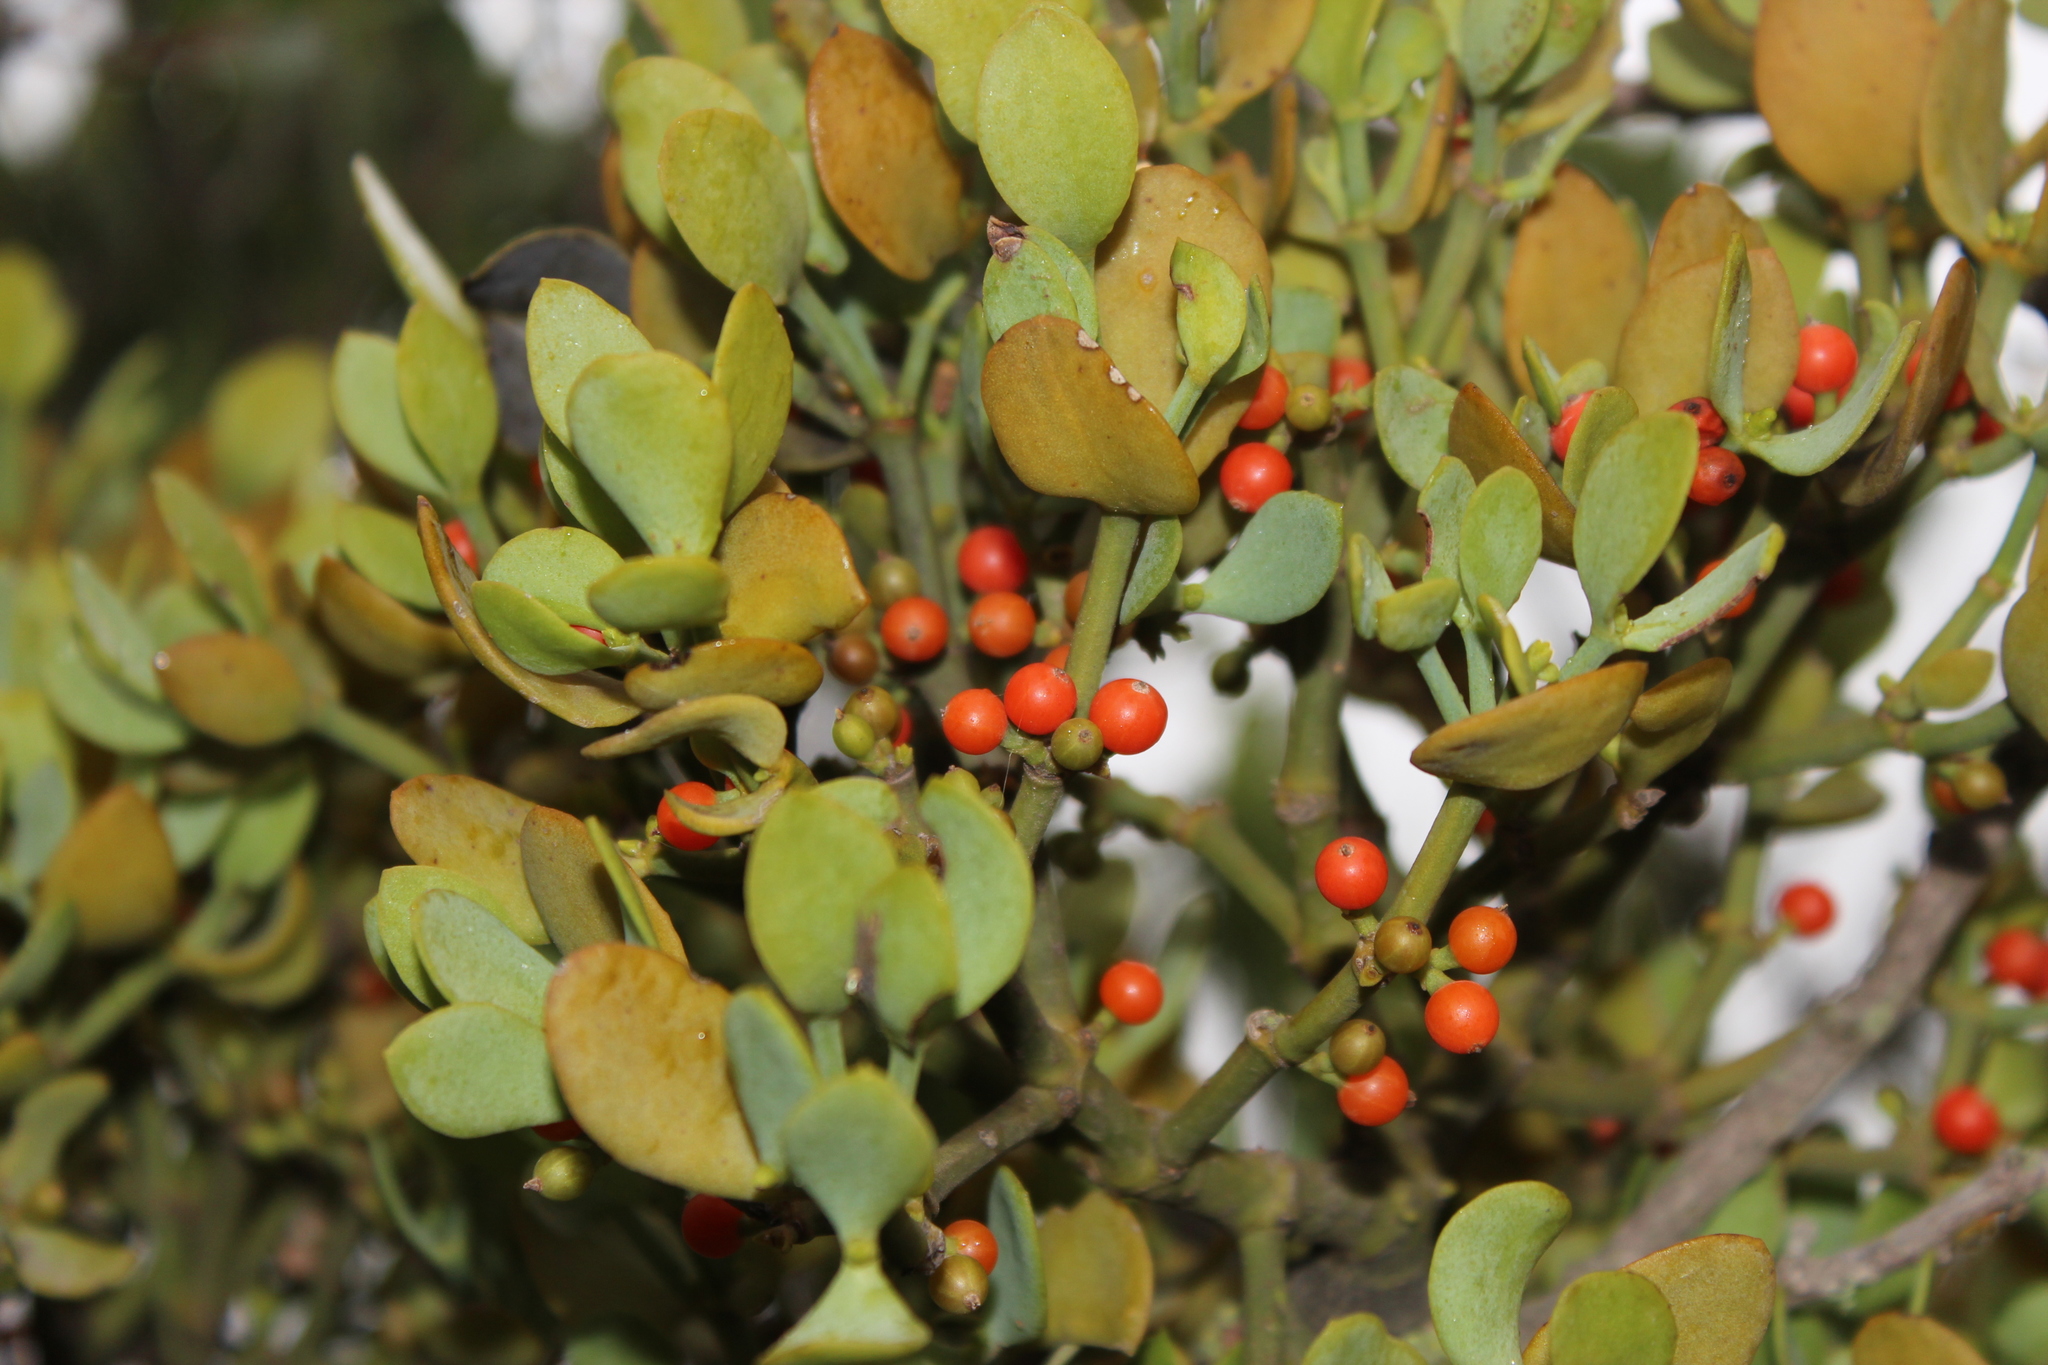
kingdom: Plantae
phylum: Tracheophyta
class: Magnoliopsida
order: Santalales
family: Viscaceae
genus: Viscum
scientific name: Viscum rotundifolium
